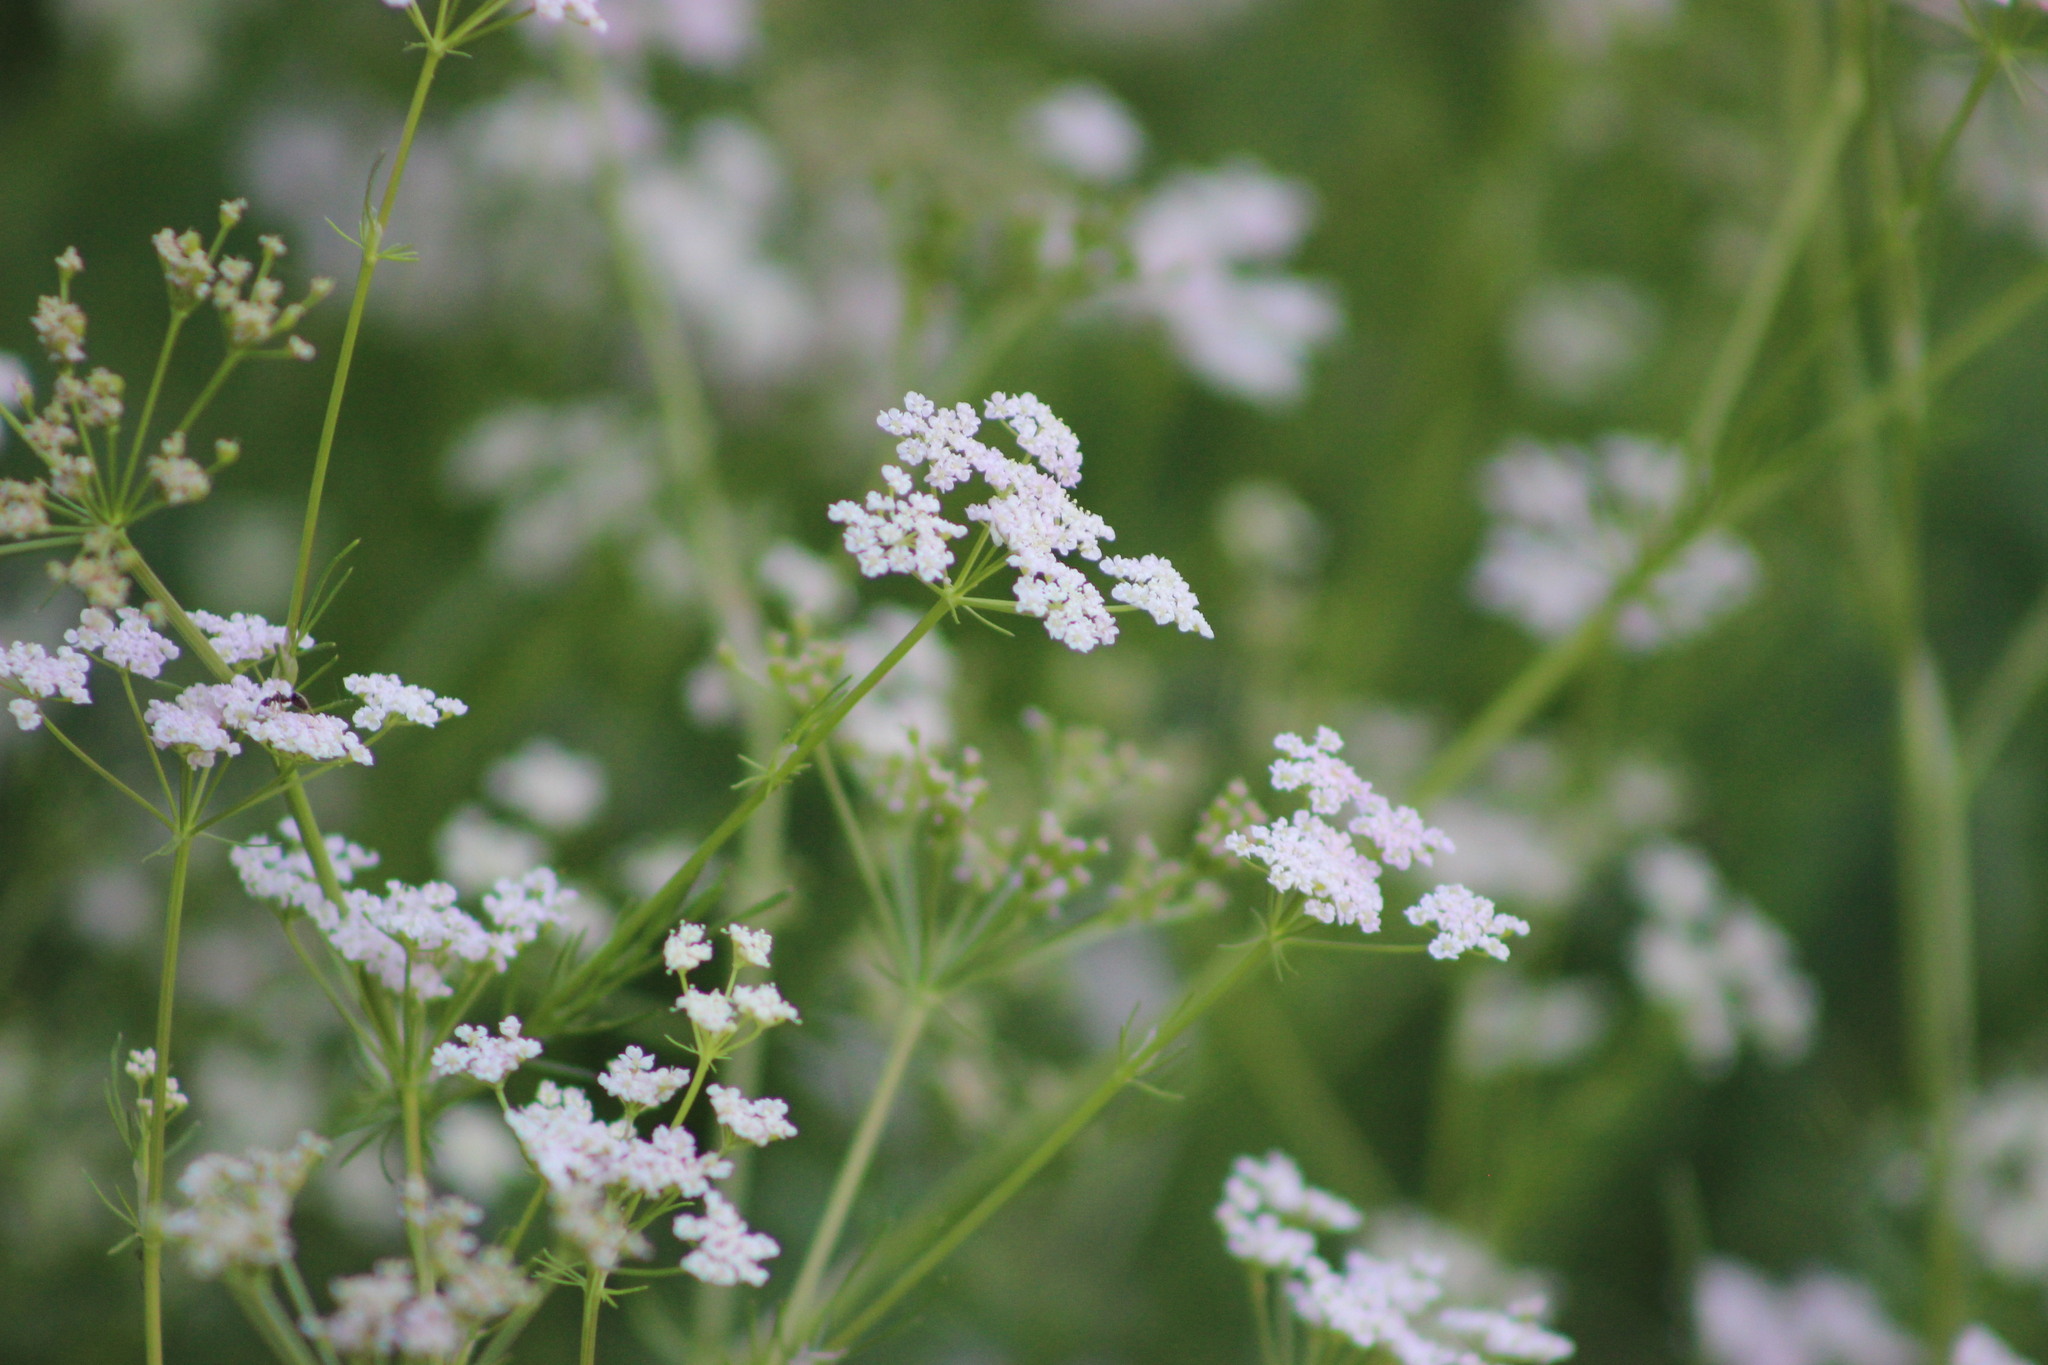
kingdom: Plantae
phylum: Tracheophyta
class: Magnoliopsida
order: Apiales
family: Apiaceae
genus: Carum
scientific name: Carum carvi
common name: Caraway
